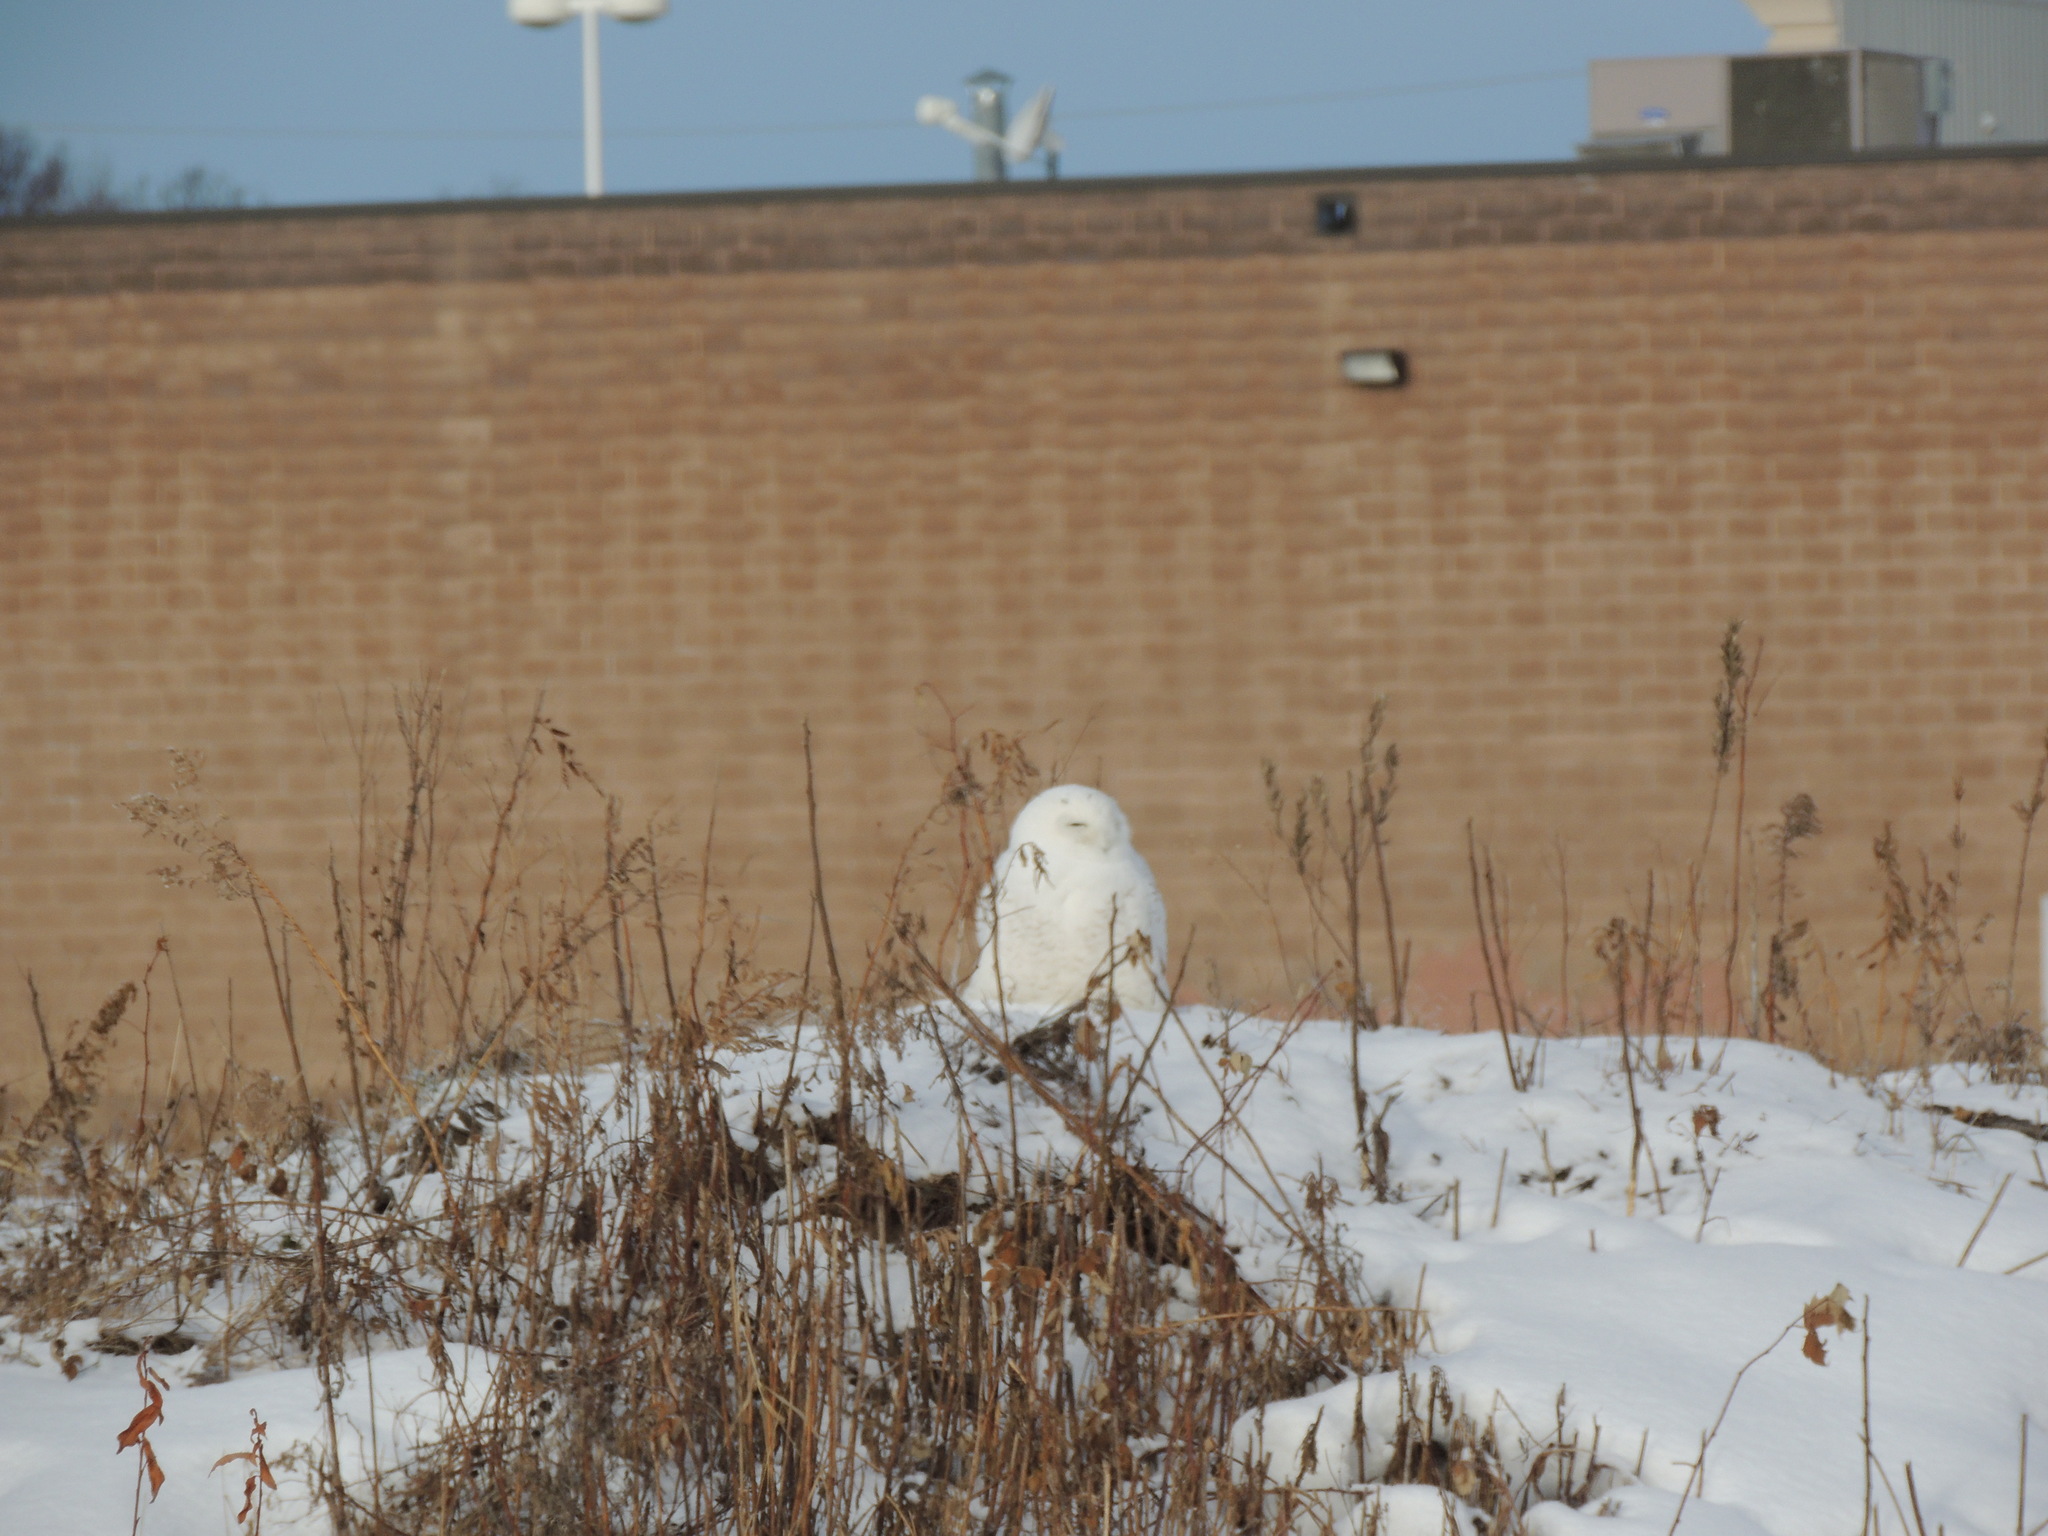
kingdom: Animalia
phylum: Chordata
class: Aves
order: Strigiformes
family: Strigidae
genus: Bubo
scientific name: Bubo scandiacus
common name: Snowy owl
